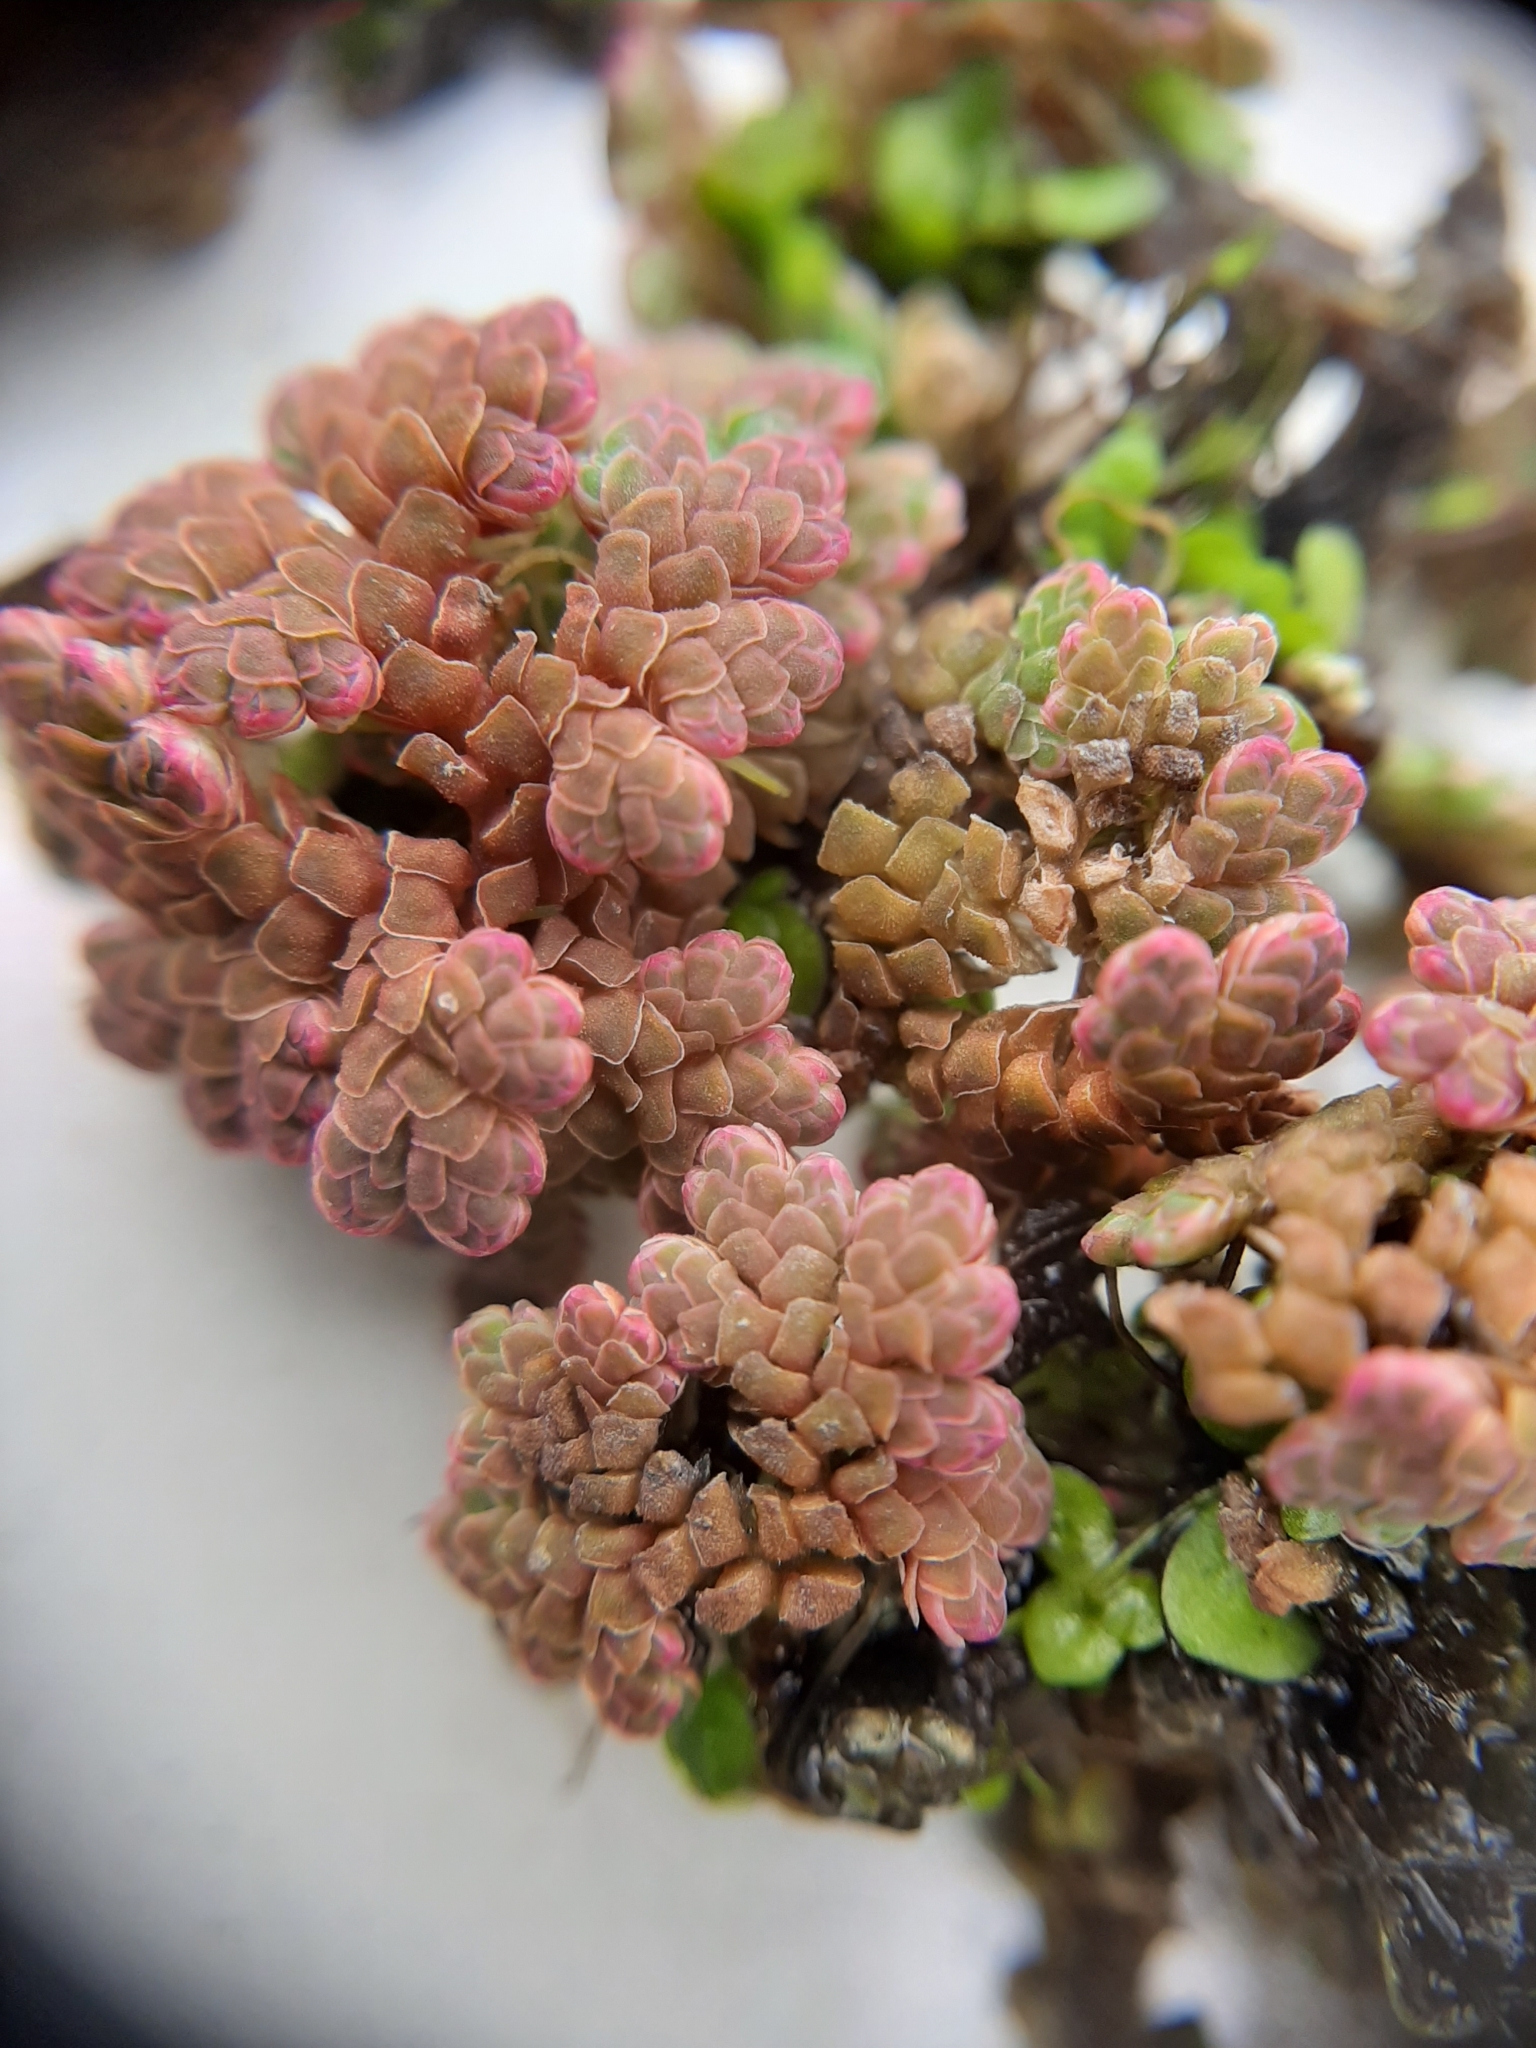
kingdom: Plantae
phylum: Tracheophyta
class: Polypodiopsida
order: Salviniales
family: Salviniaceae
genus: Azolla
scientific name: Azolla rubra
